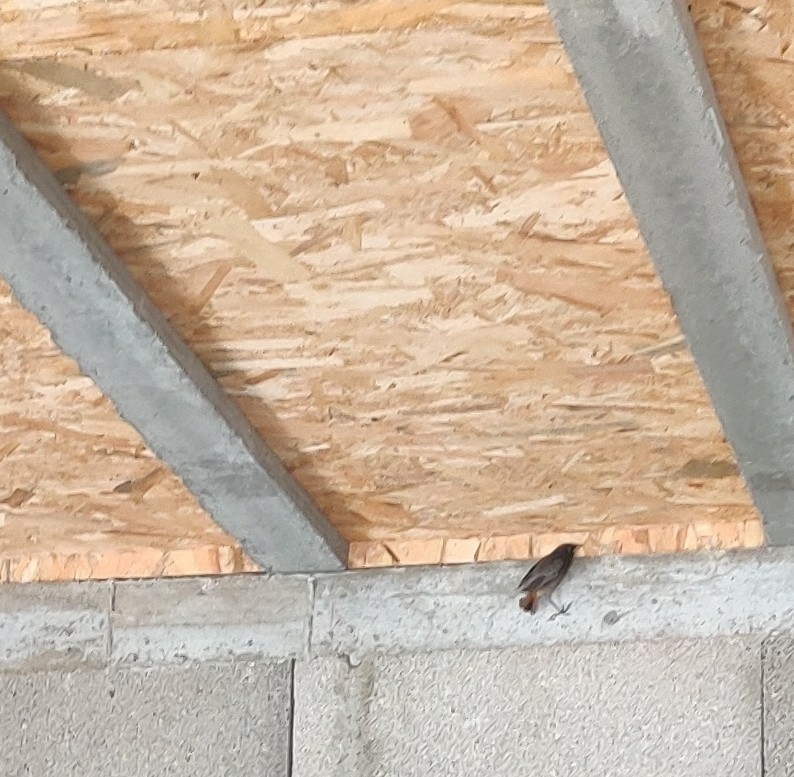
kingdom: Animalia
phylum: Chordata
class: Aves
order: Passeriformes
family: Muscicapidae
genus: Phoenicurus
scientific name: Phoenicurus ochruros
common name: Black redstart
